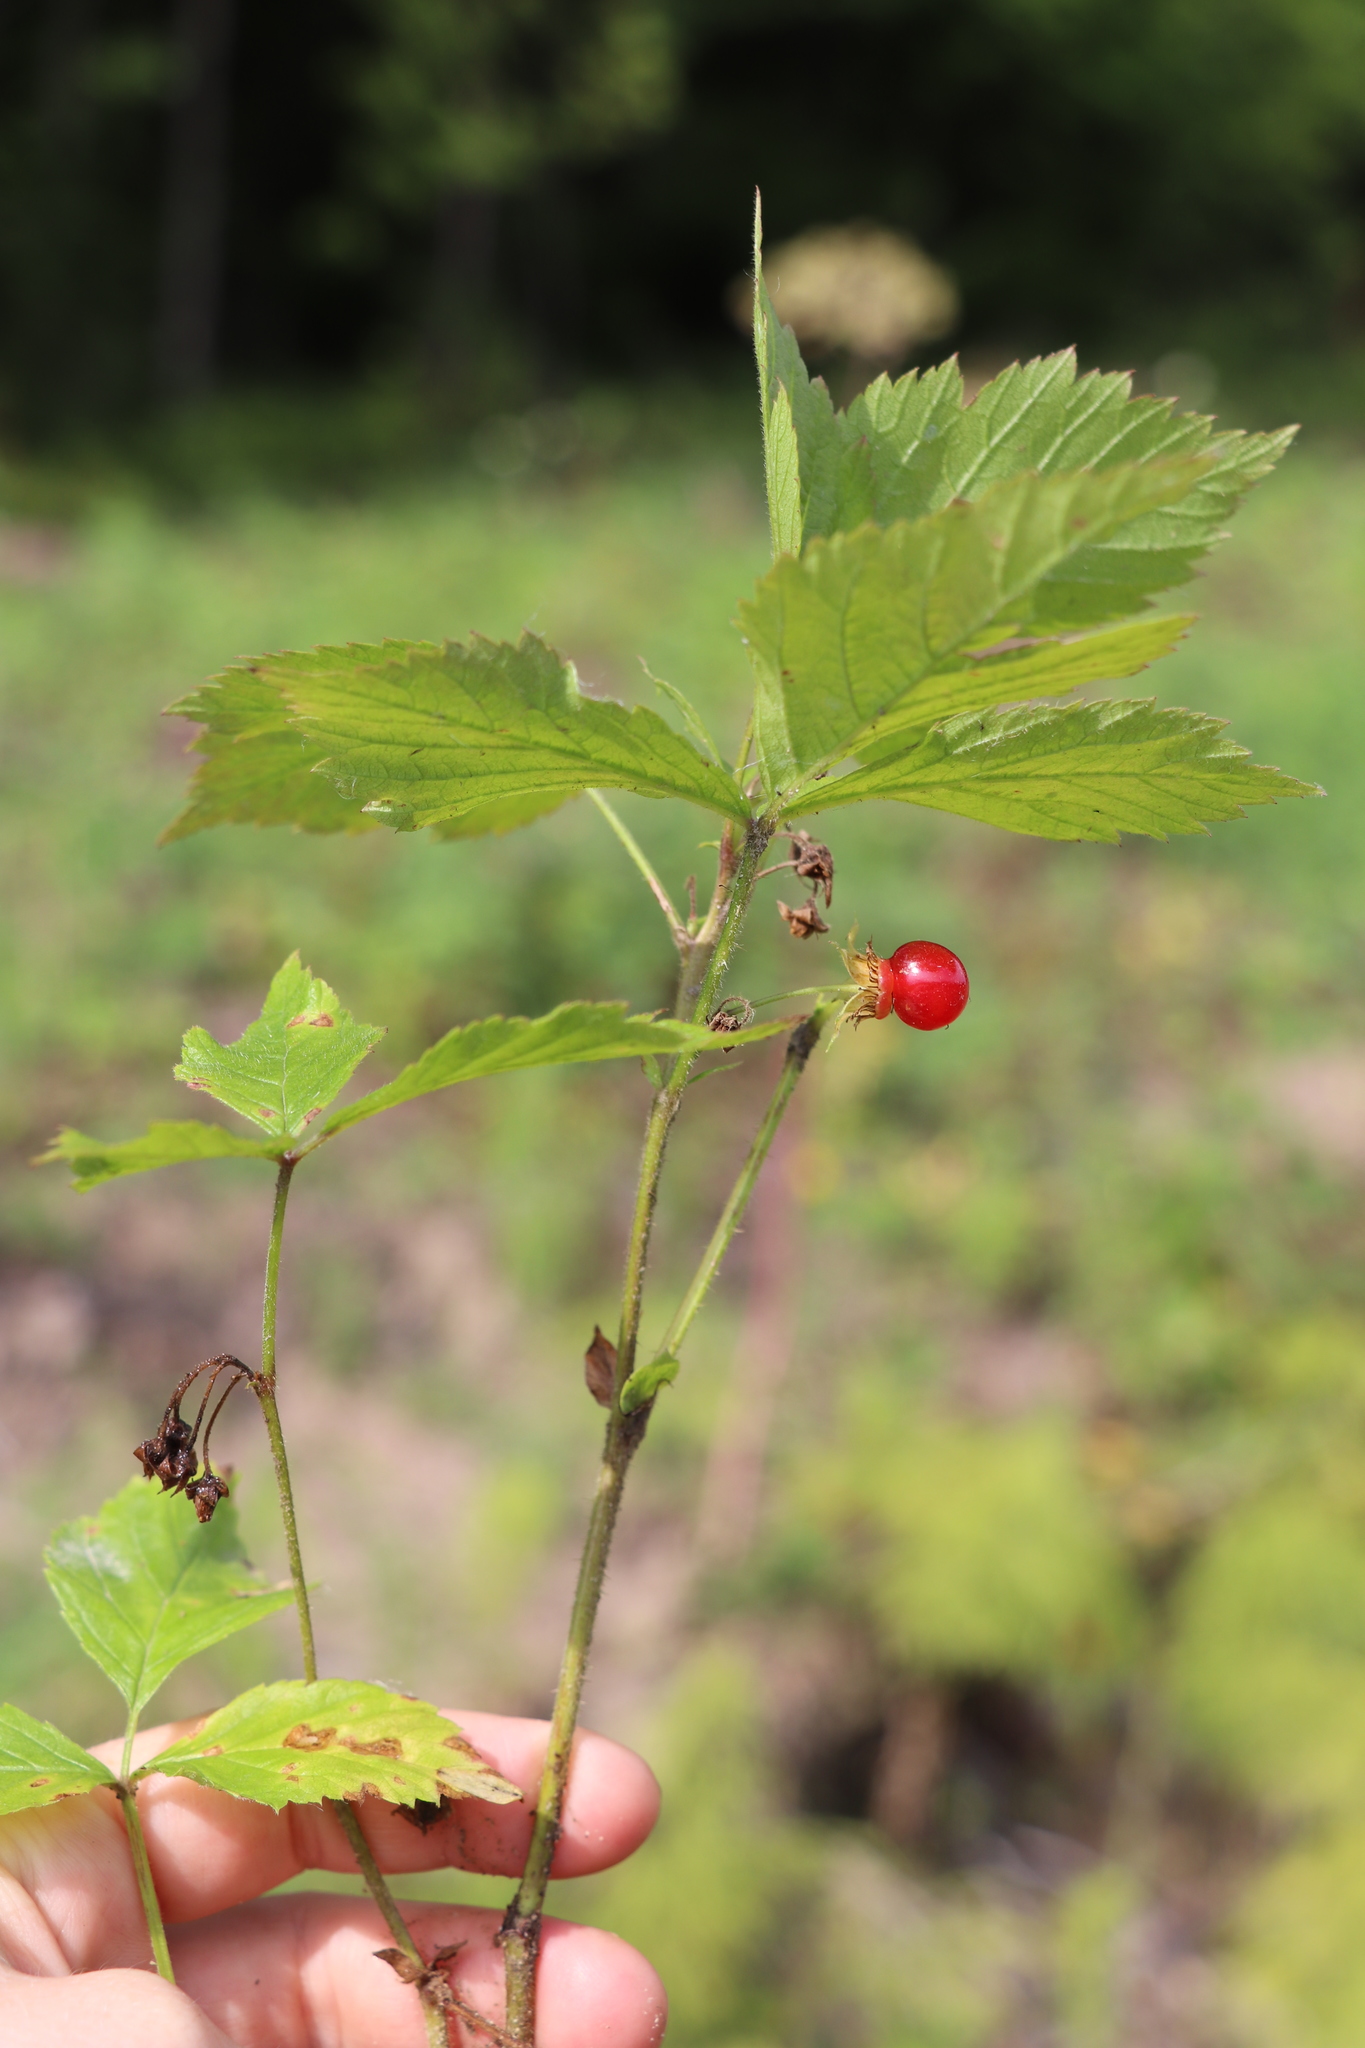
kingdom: Plantae
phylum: Tracheophyta
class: Magnoliopsida
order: Rosales
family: Rosaceae
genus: Rubus
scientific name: Rubus saxatilis
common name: Stone bramble
